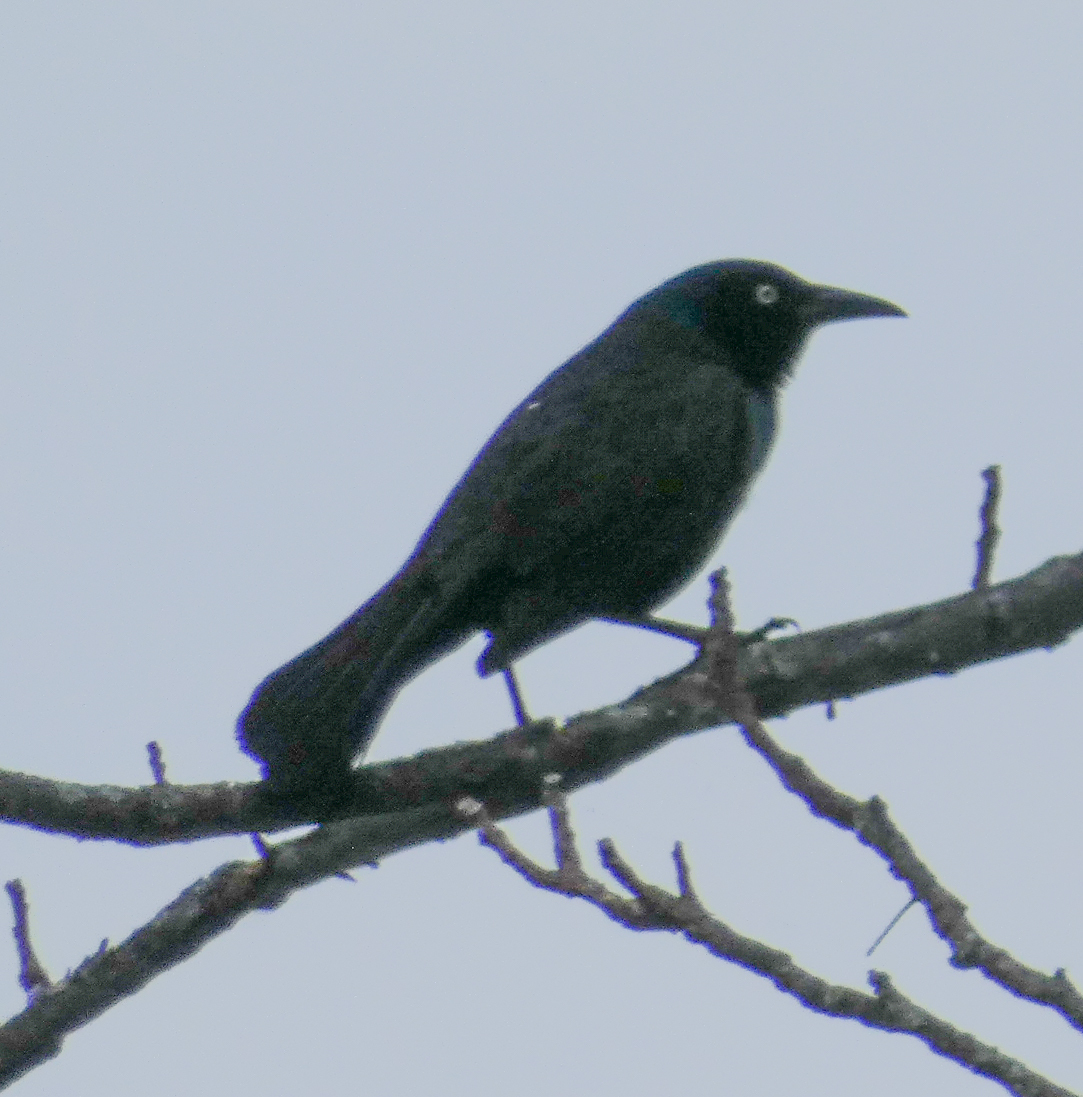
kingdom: Animalia
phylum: Chordata
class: Aves
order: Passeriformes
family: Icteridae
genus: Quiscalus
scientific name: Quiscalus quiscula
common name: Common grackle
